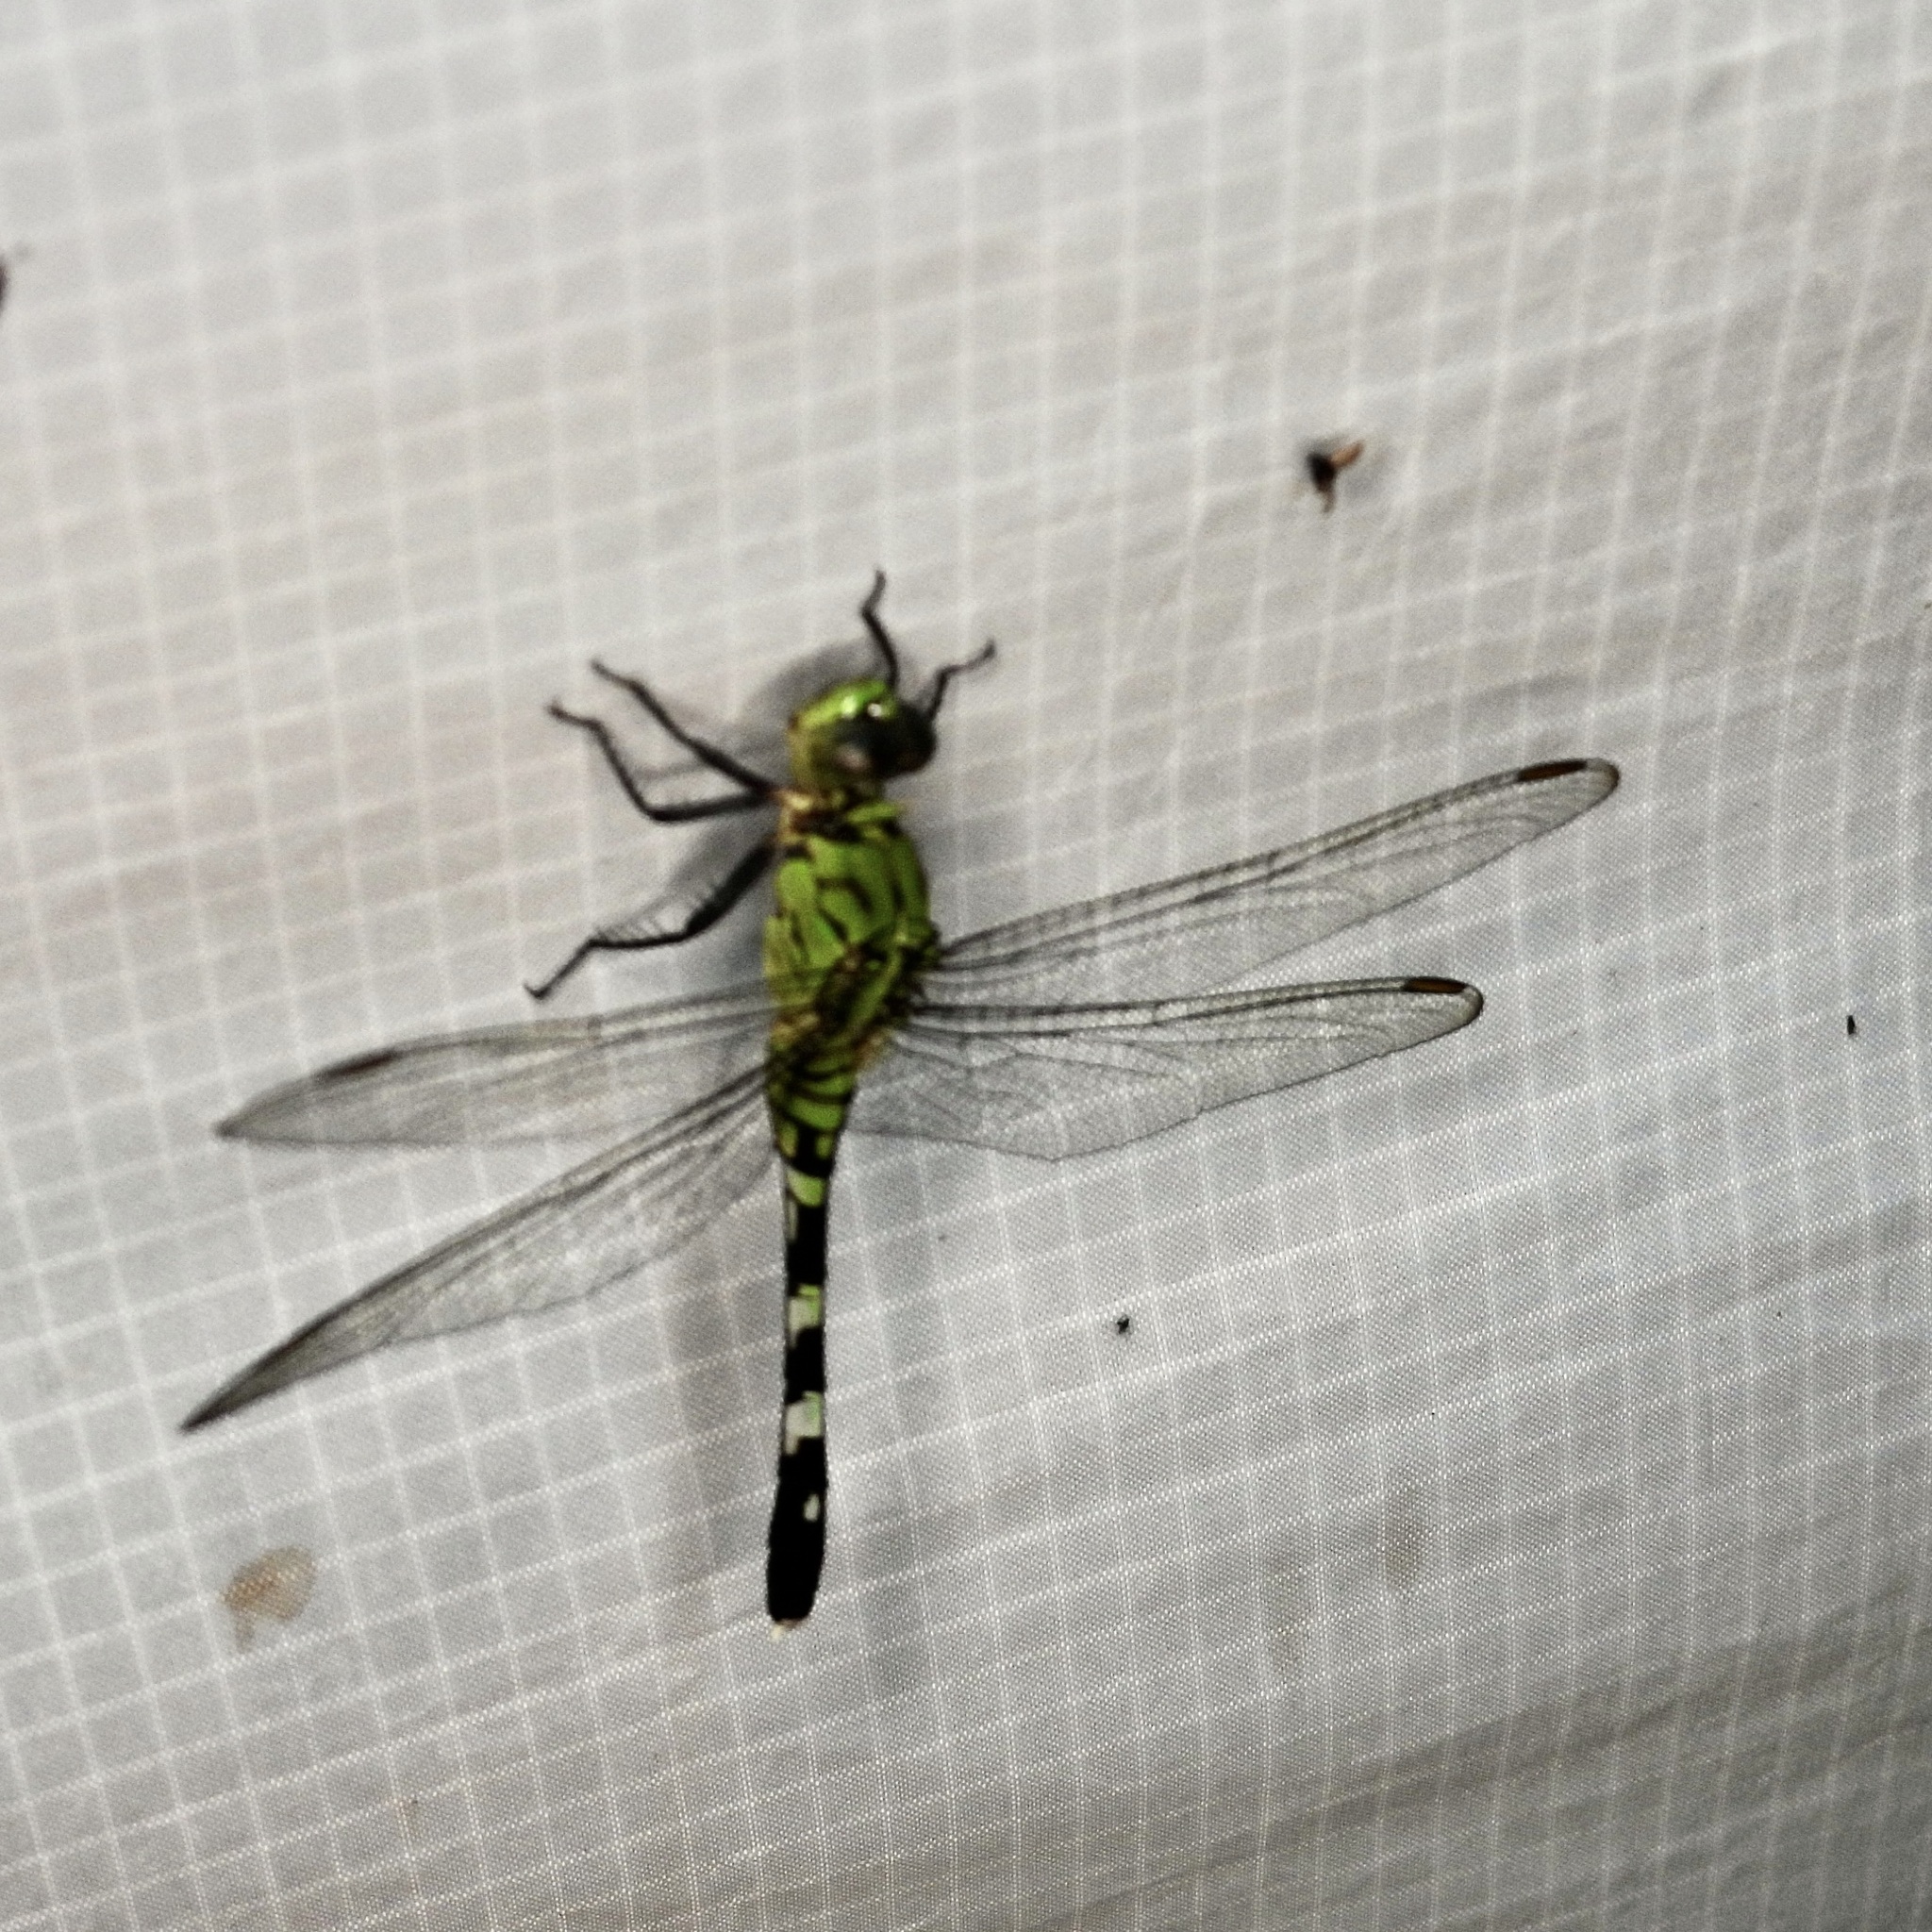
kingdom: Animalia
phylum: Arthropoda
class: Insecta
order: Odonata
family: Libellulidae
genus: Erythemis
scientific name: Erythemis simplicicollis
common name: Eastern pondhawk
